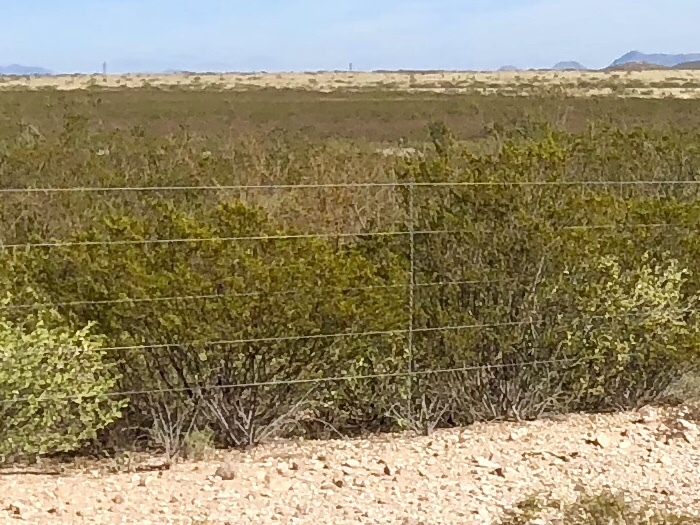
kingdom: Plantae
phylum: Tracheophyta
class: Magnoliopsida
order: Zygophyllales
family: Zygophyllaceae
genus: Larrea
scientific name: Larrea tridentata
